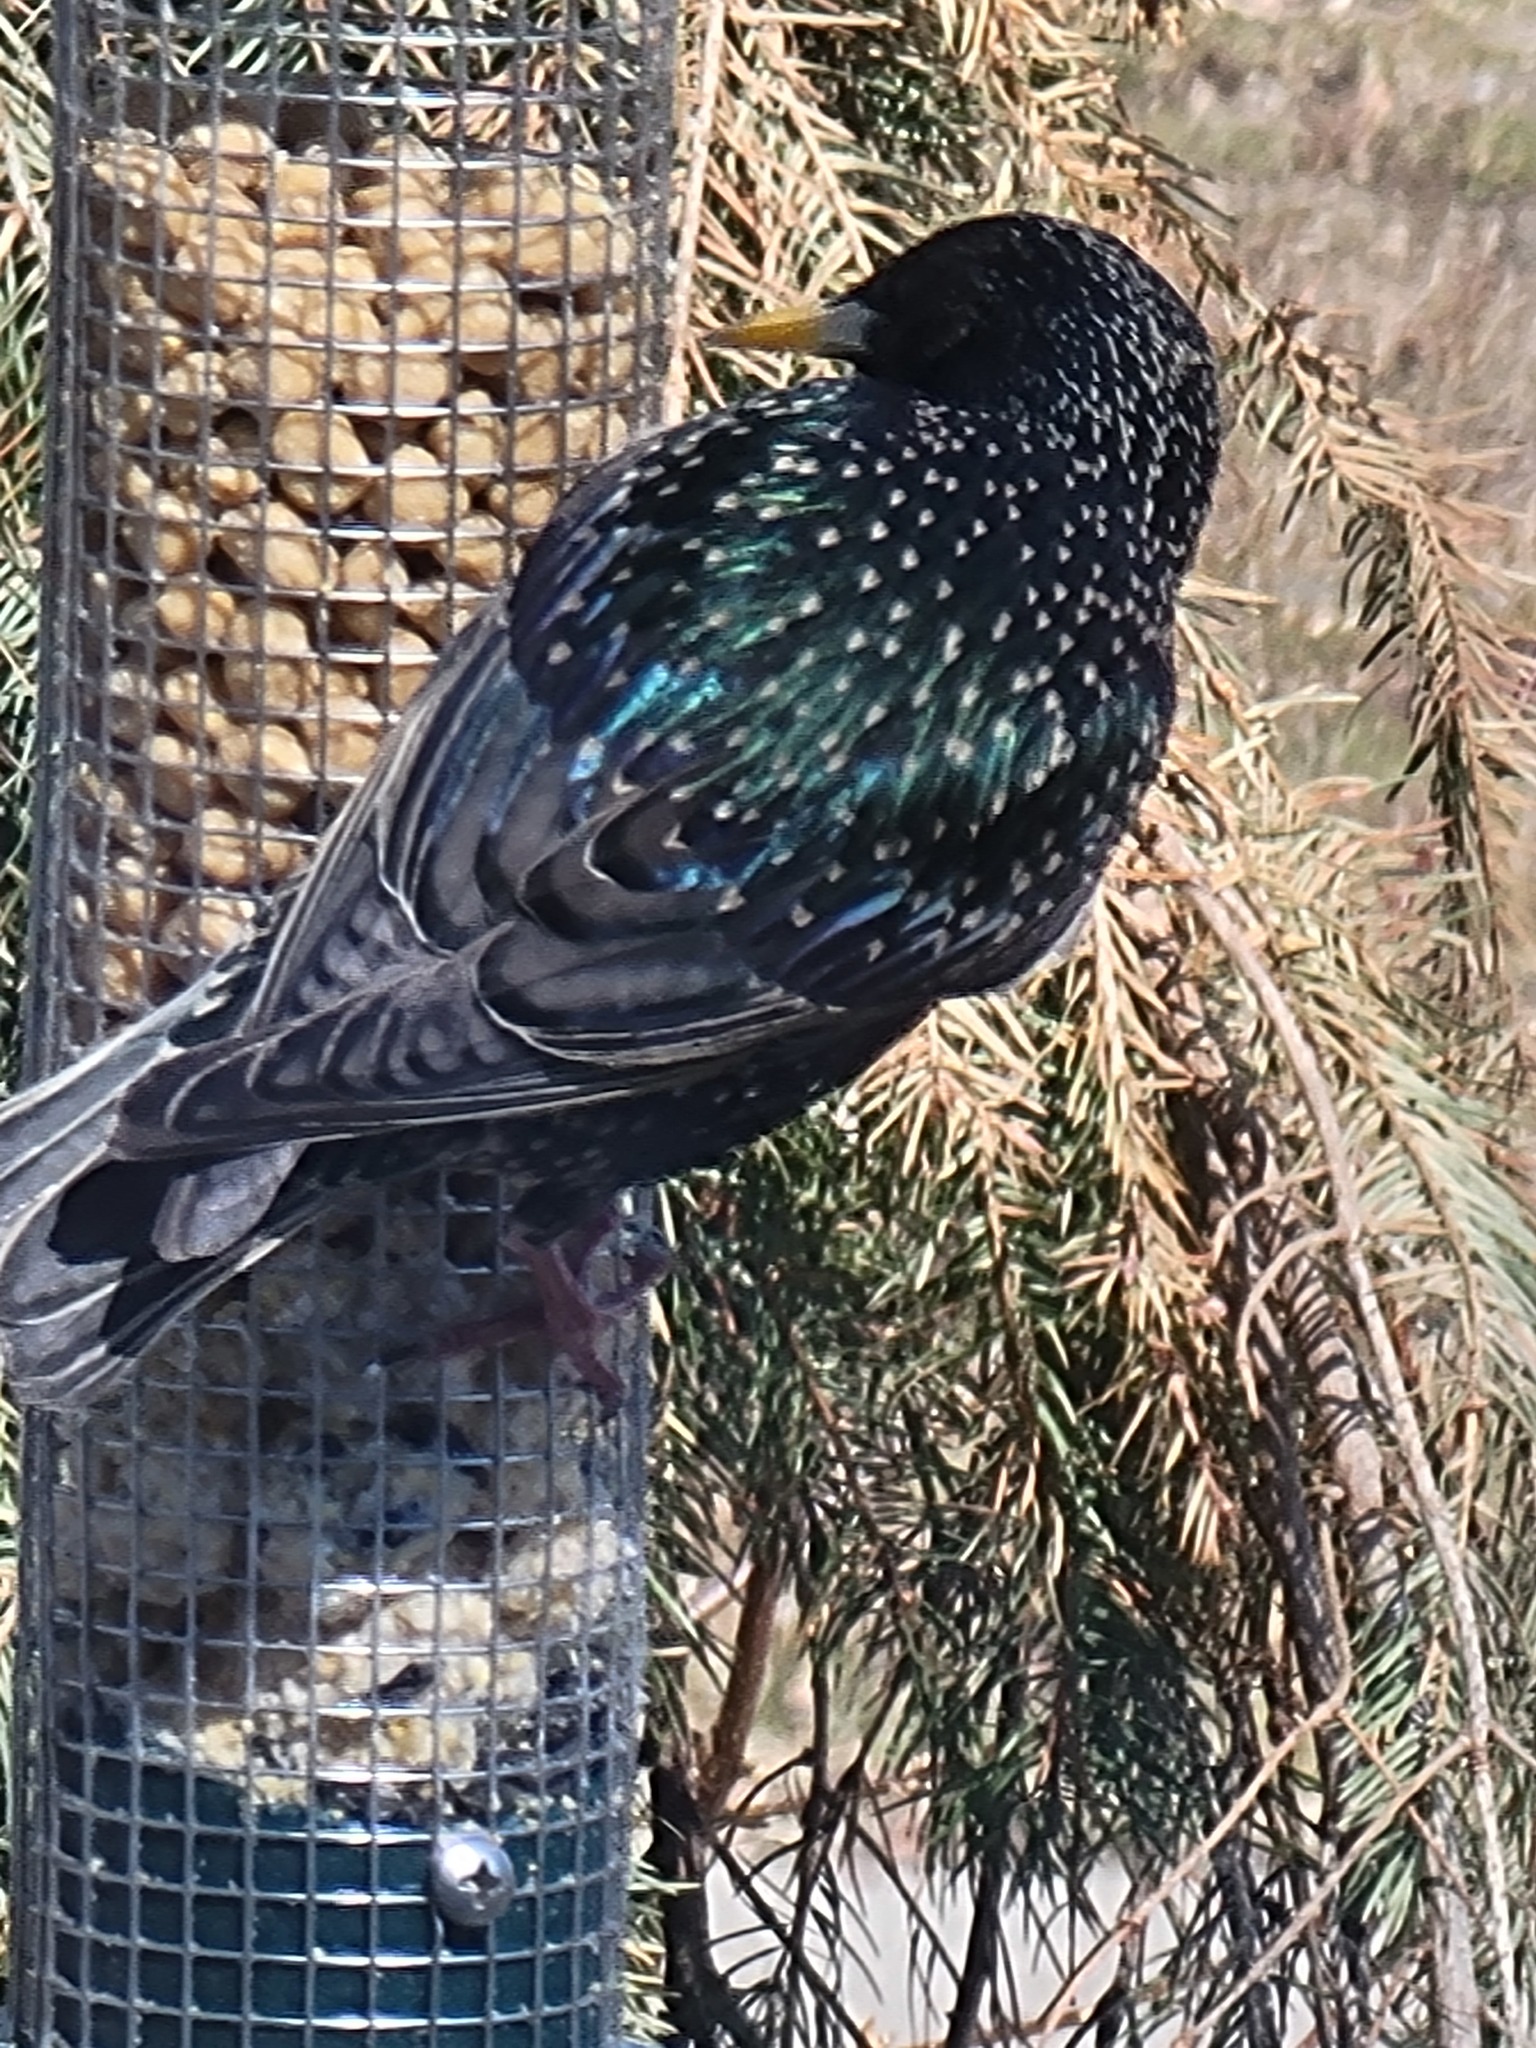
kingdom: Animalia
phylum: Chordata
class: Aves
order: Passeriformes
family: Sturnidae
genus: Sturnus
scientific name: Sturnus vulgaris
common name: Common starling
